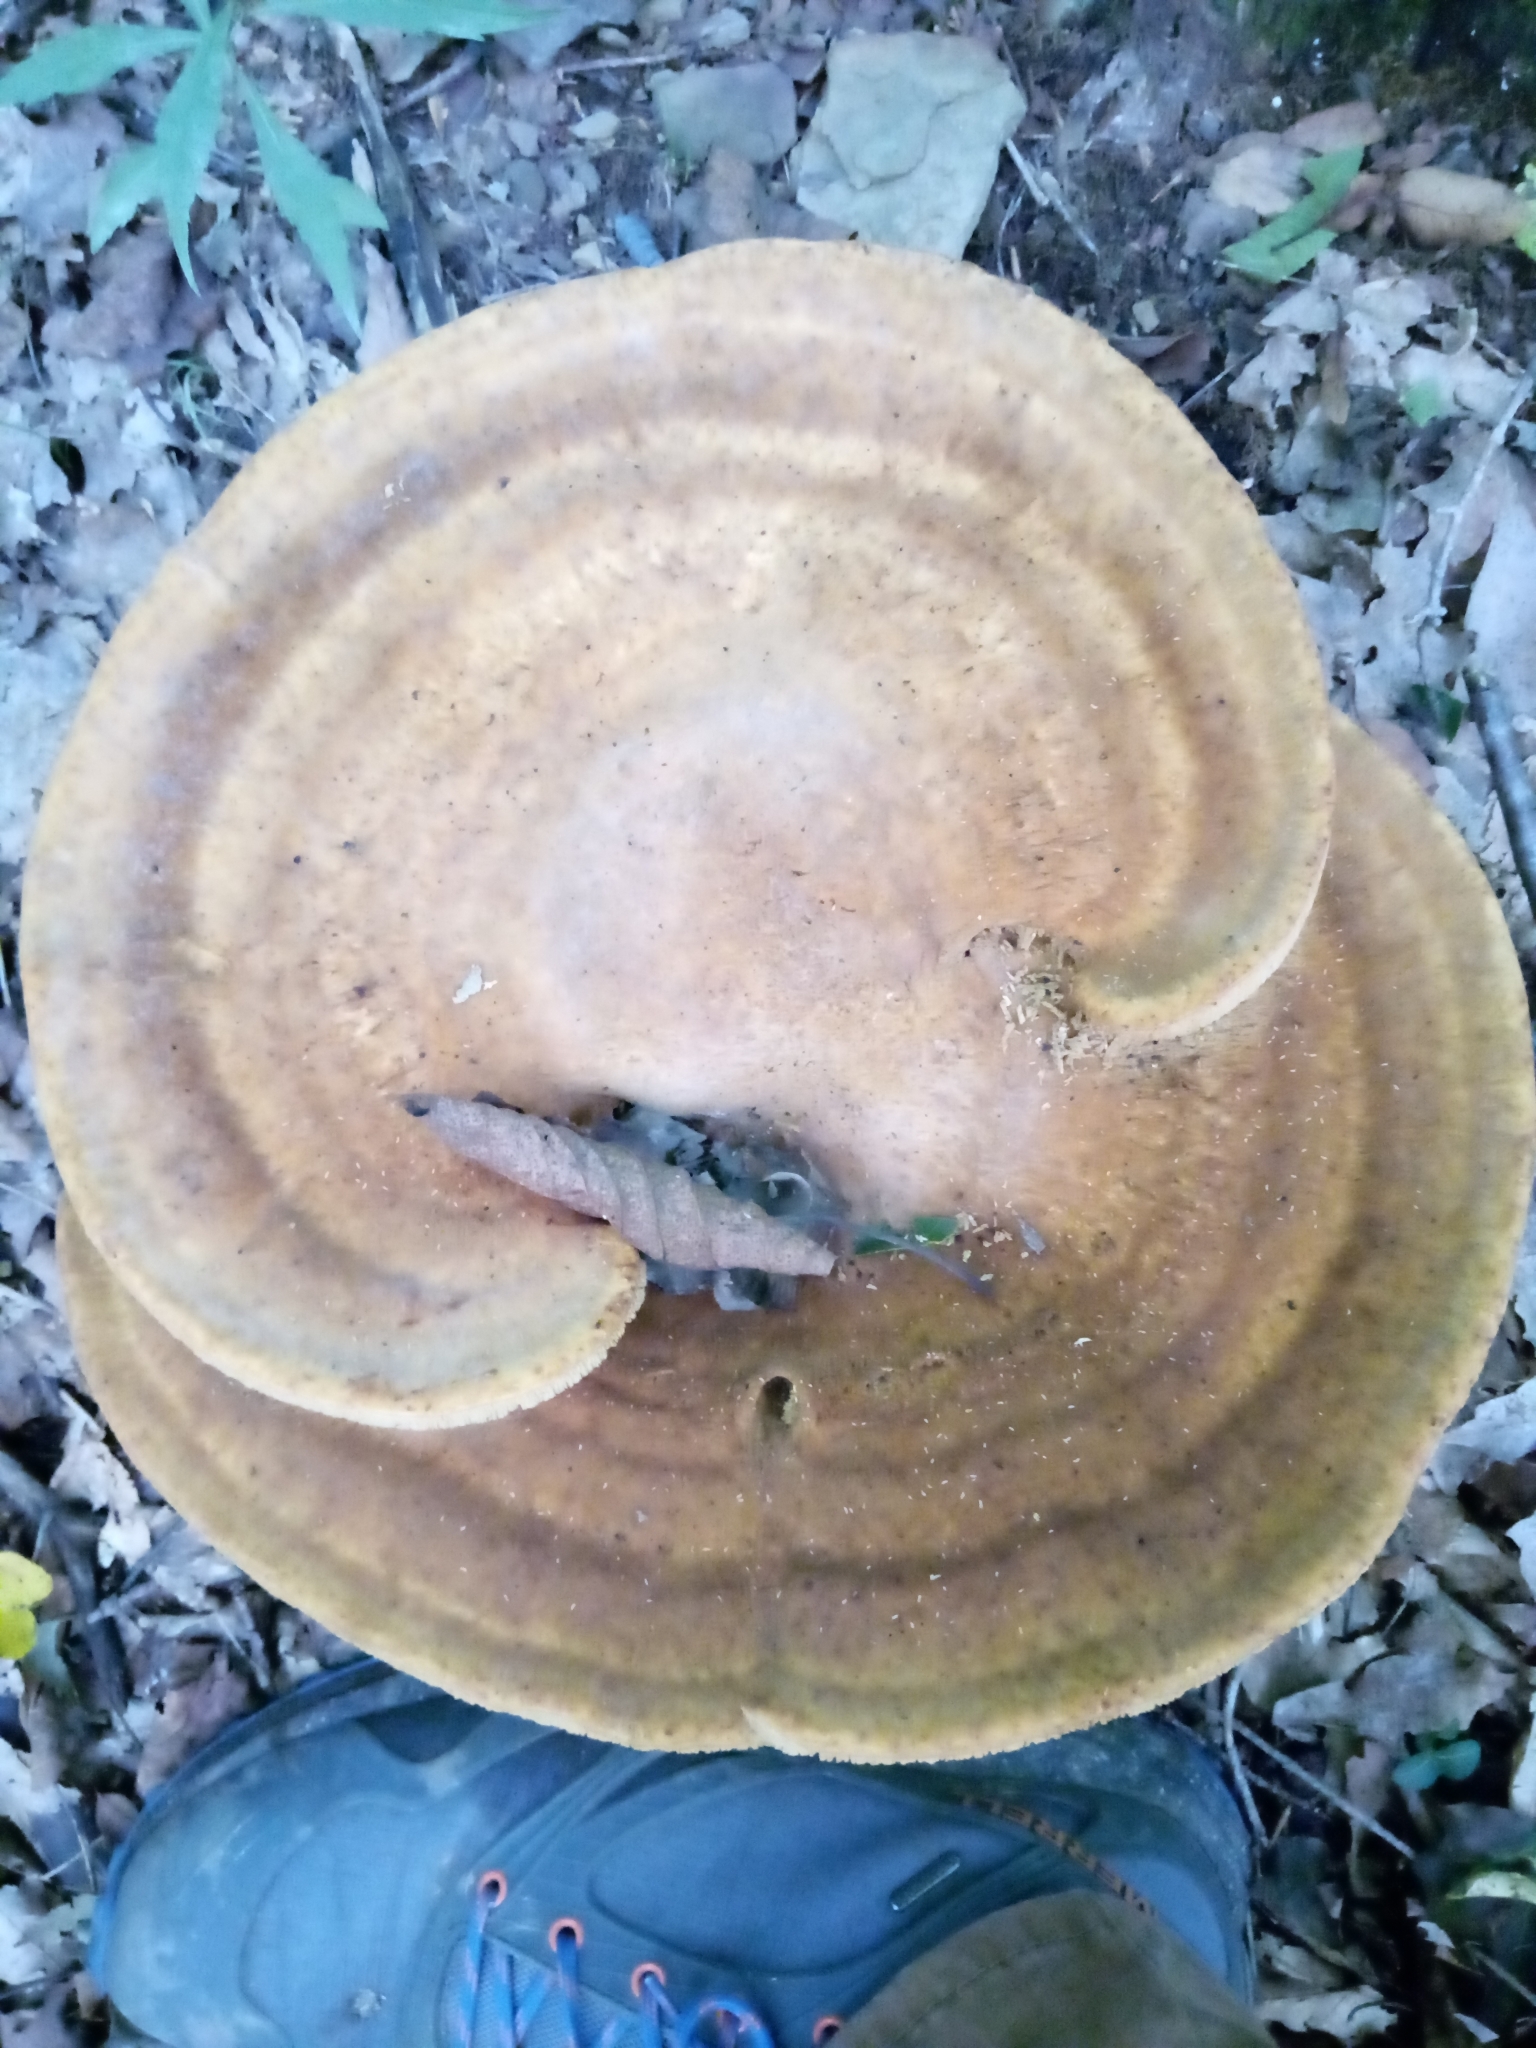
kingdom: Fungi
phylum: Basidiomycota
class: Agaricomycetes
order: Russulales
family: Bondarzewiaceae
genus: Bondarzewia
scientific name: Bondarzewia berkeleyi
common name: Berkeley's polypore
